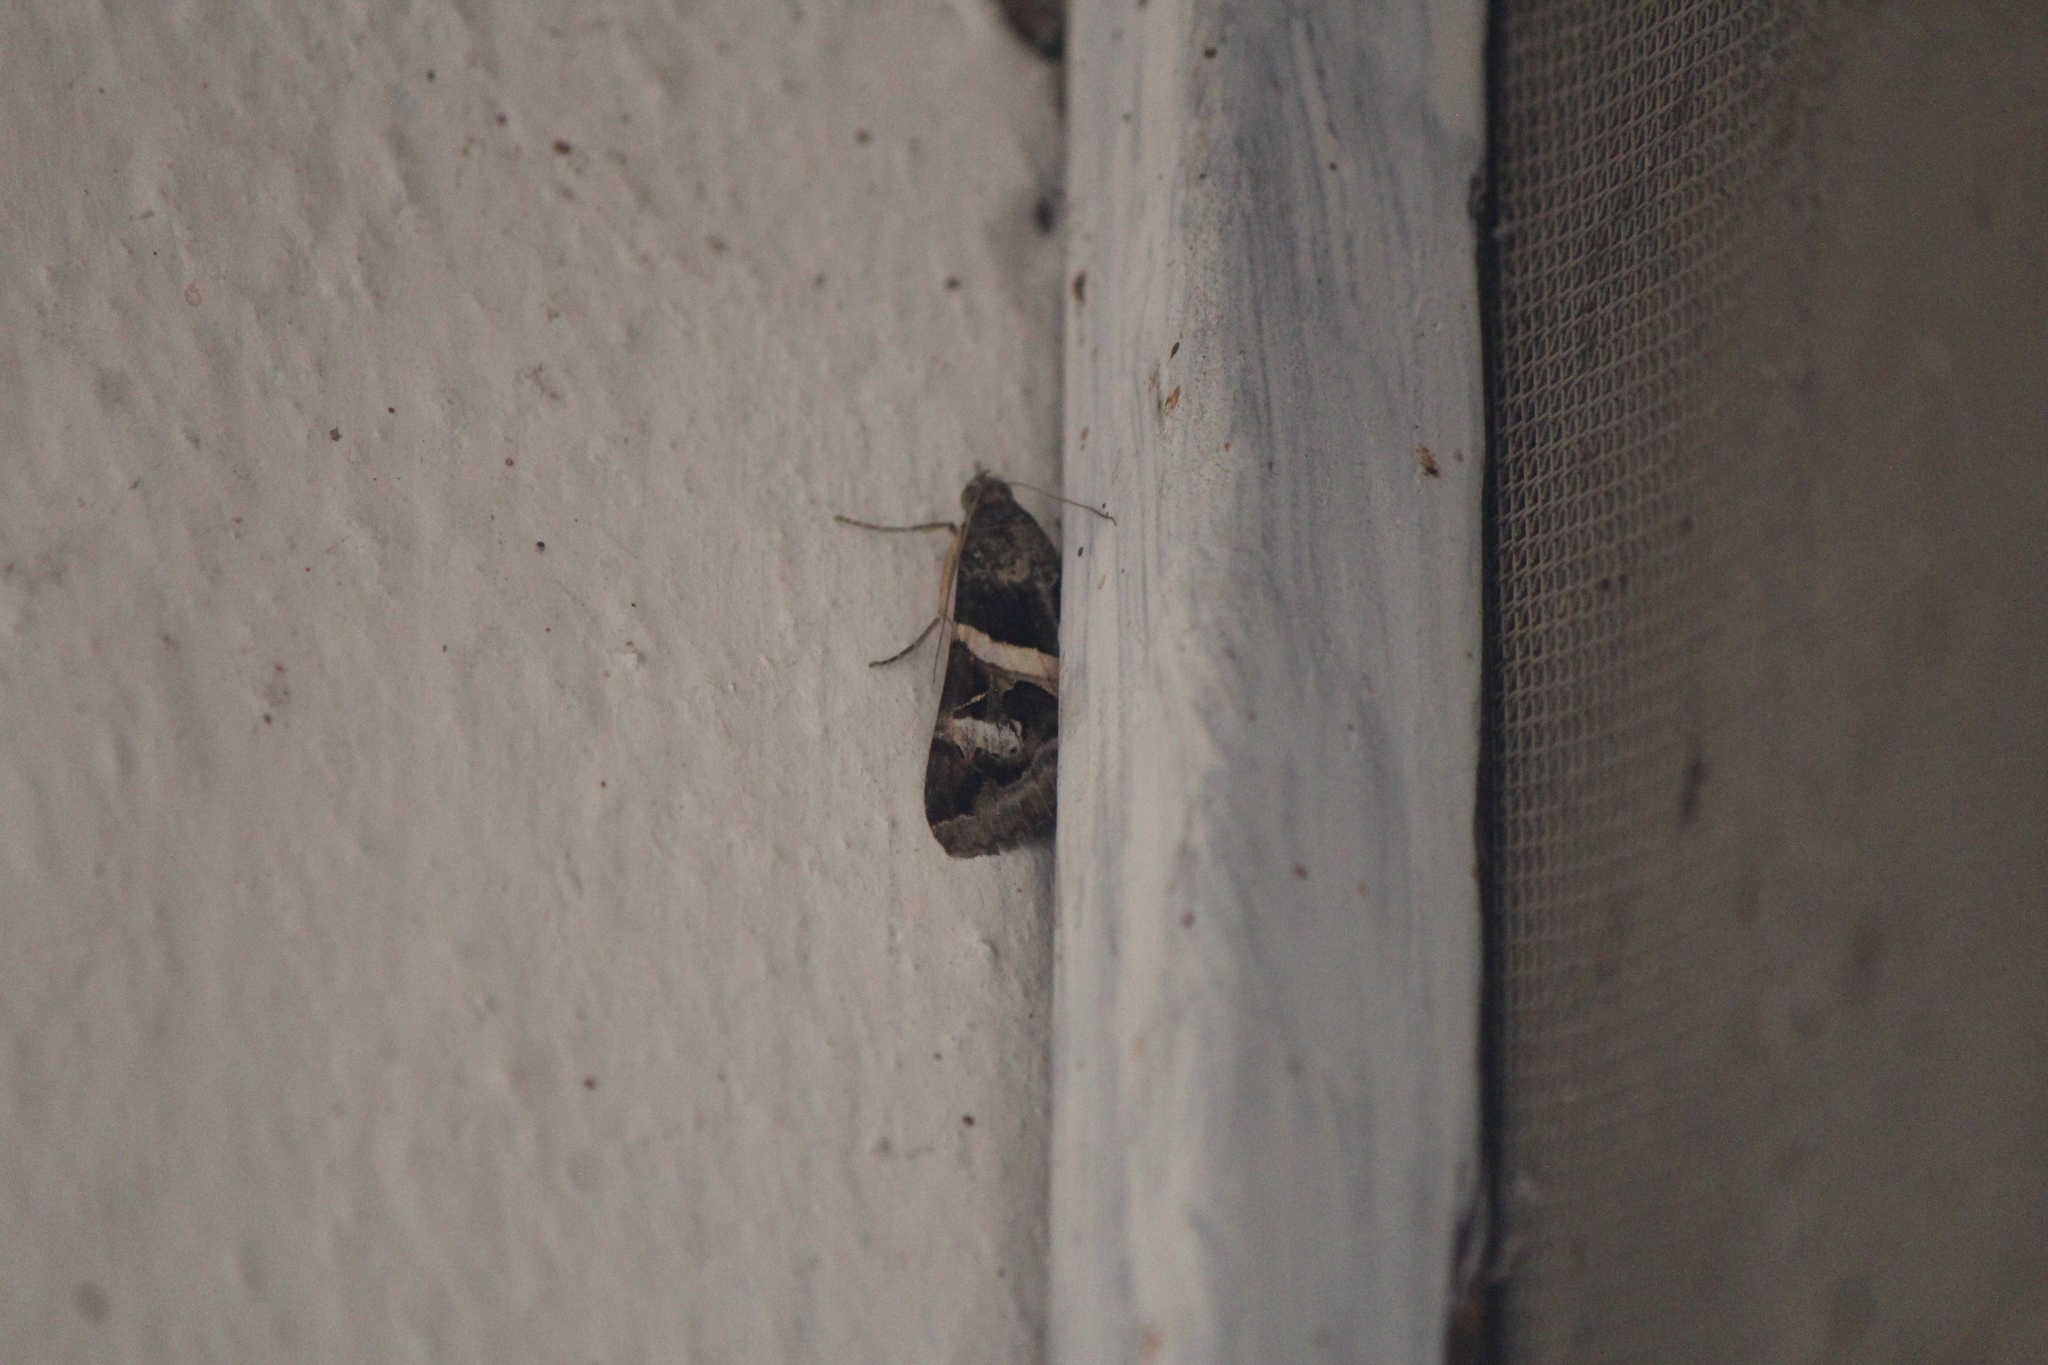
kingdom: Animalia
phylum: Arthropoda
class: Insecta
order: Lepidoptera
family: Erebidae
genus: Melipotis
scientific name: Melipotis indomita
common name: Moth
